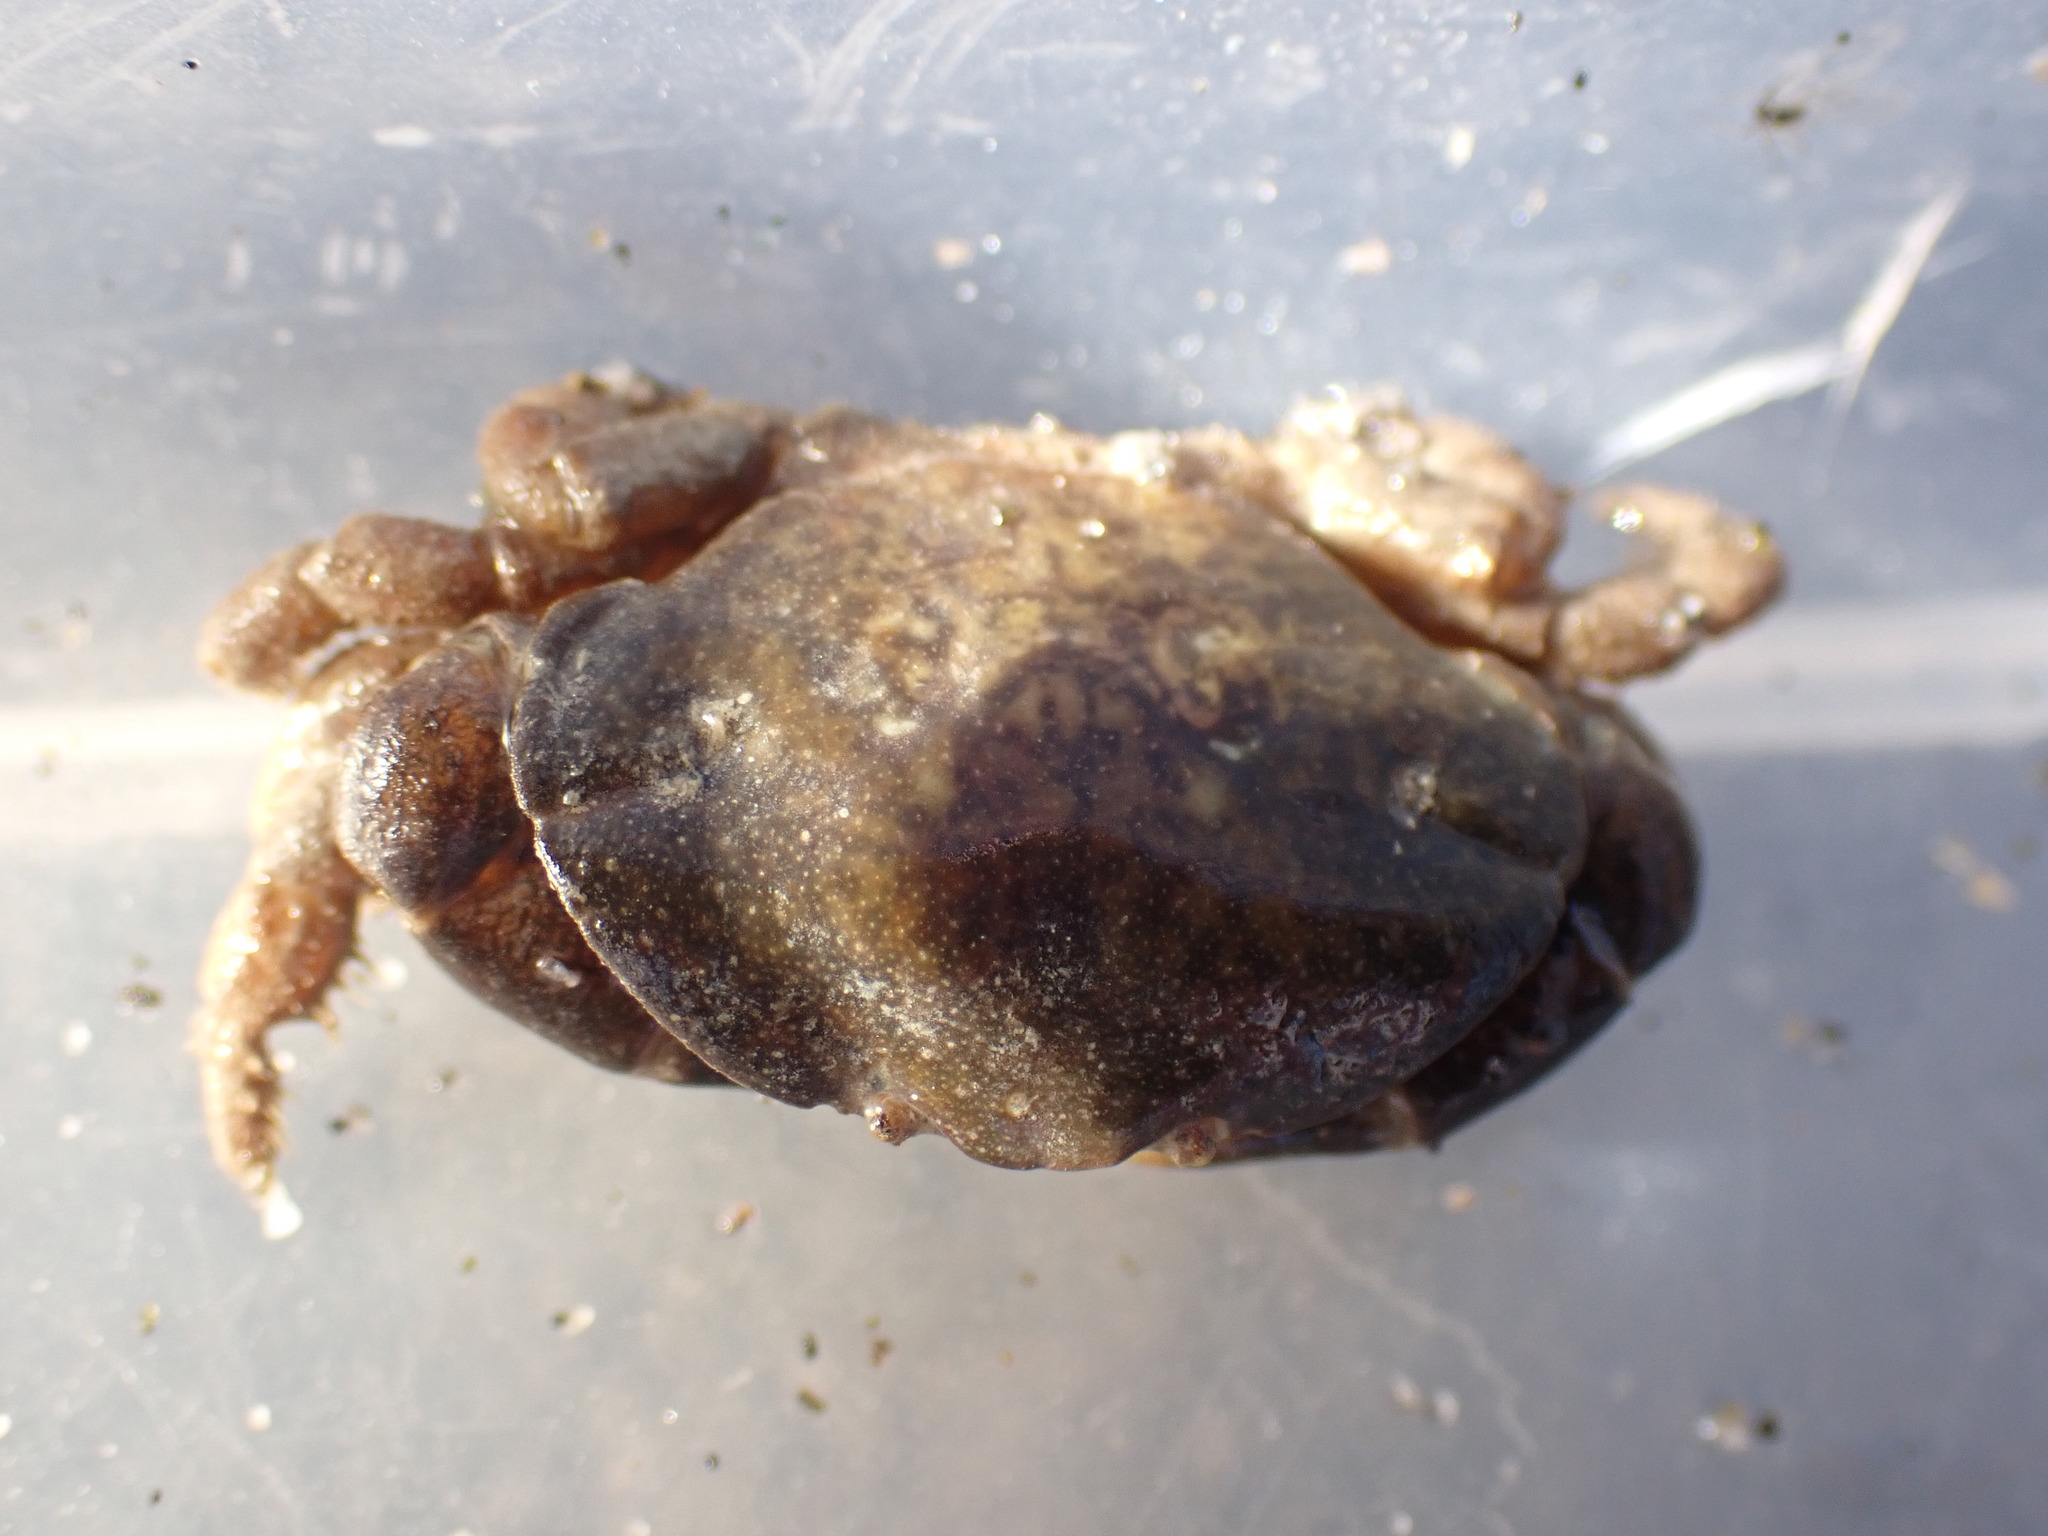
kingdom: Animalia
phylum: Arthropoda
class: Malacostraca
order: Decapoda
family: Heteroziidae
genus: Heterozius
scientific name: Heterozius rotundifrons
